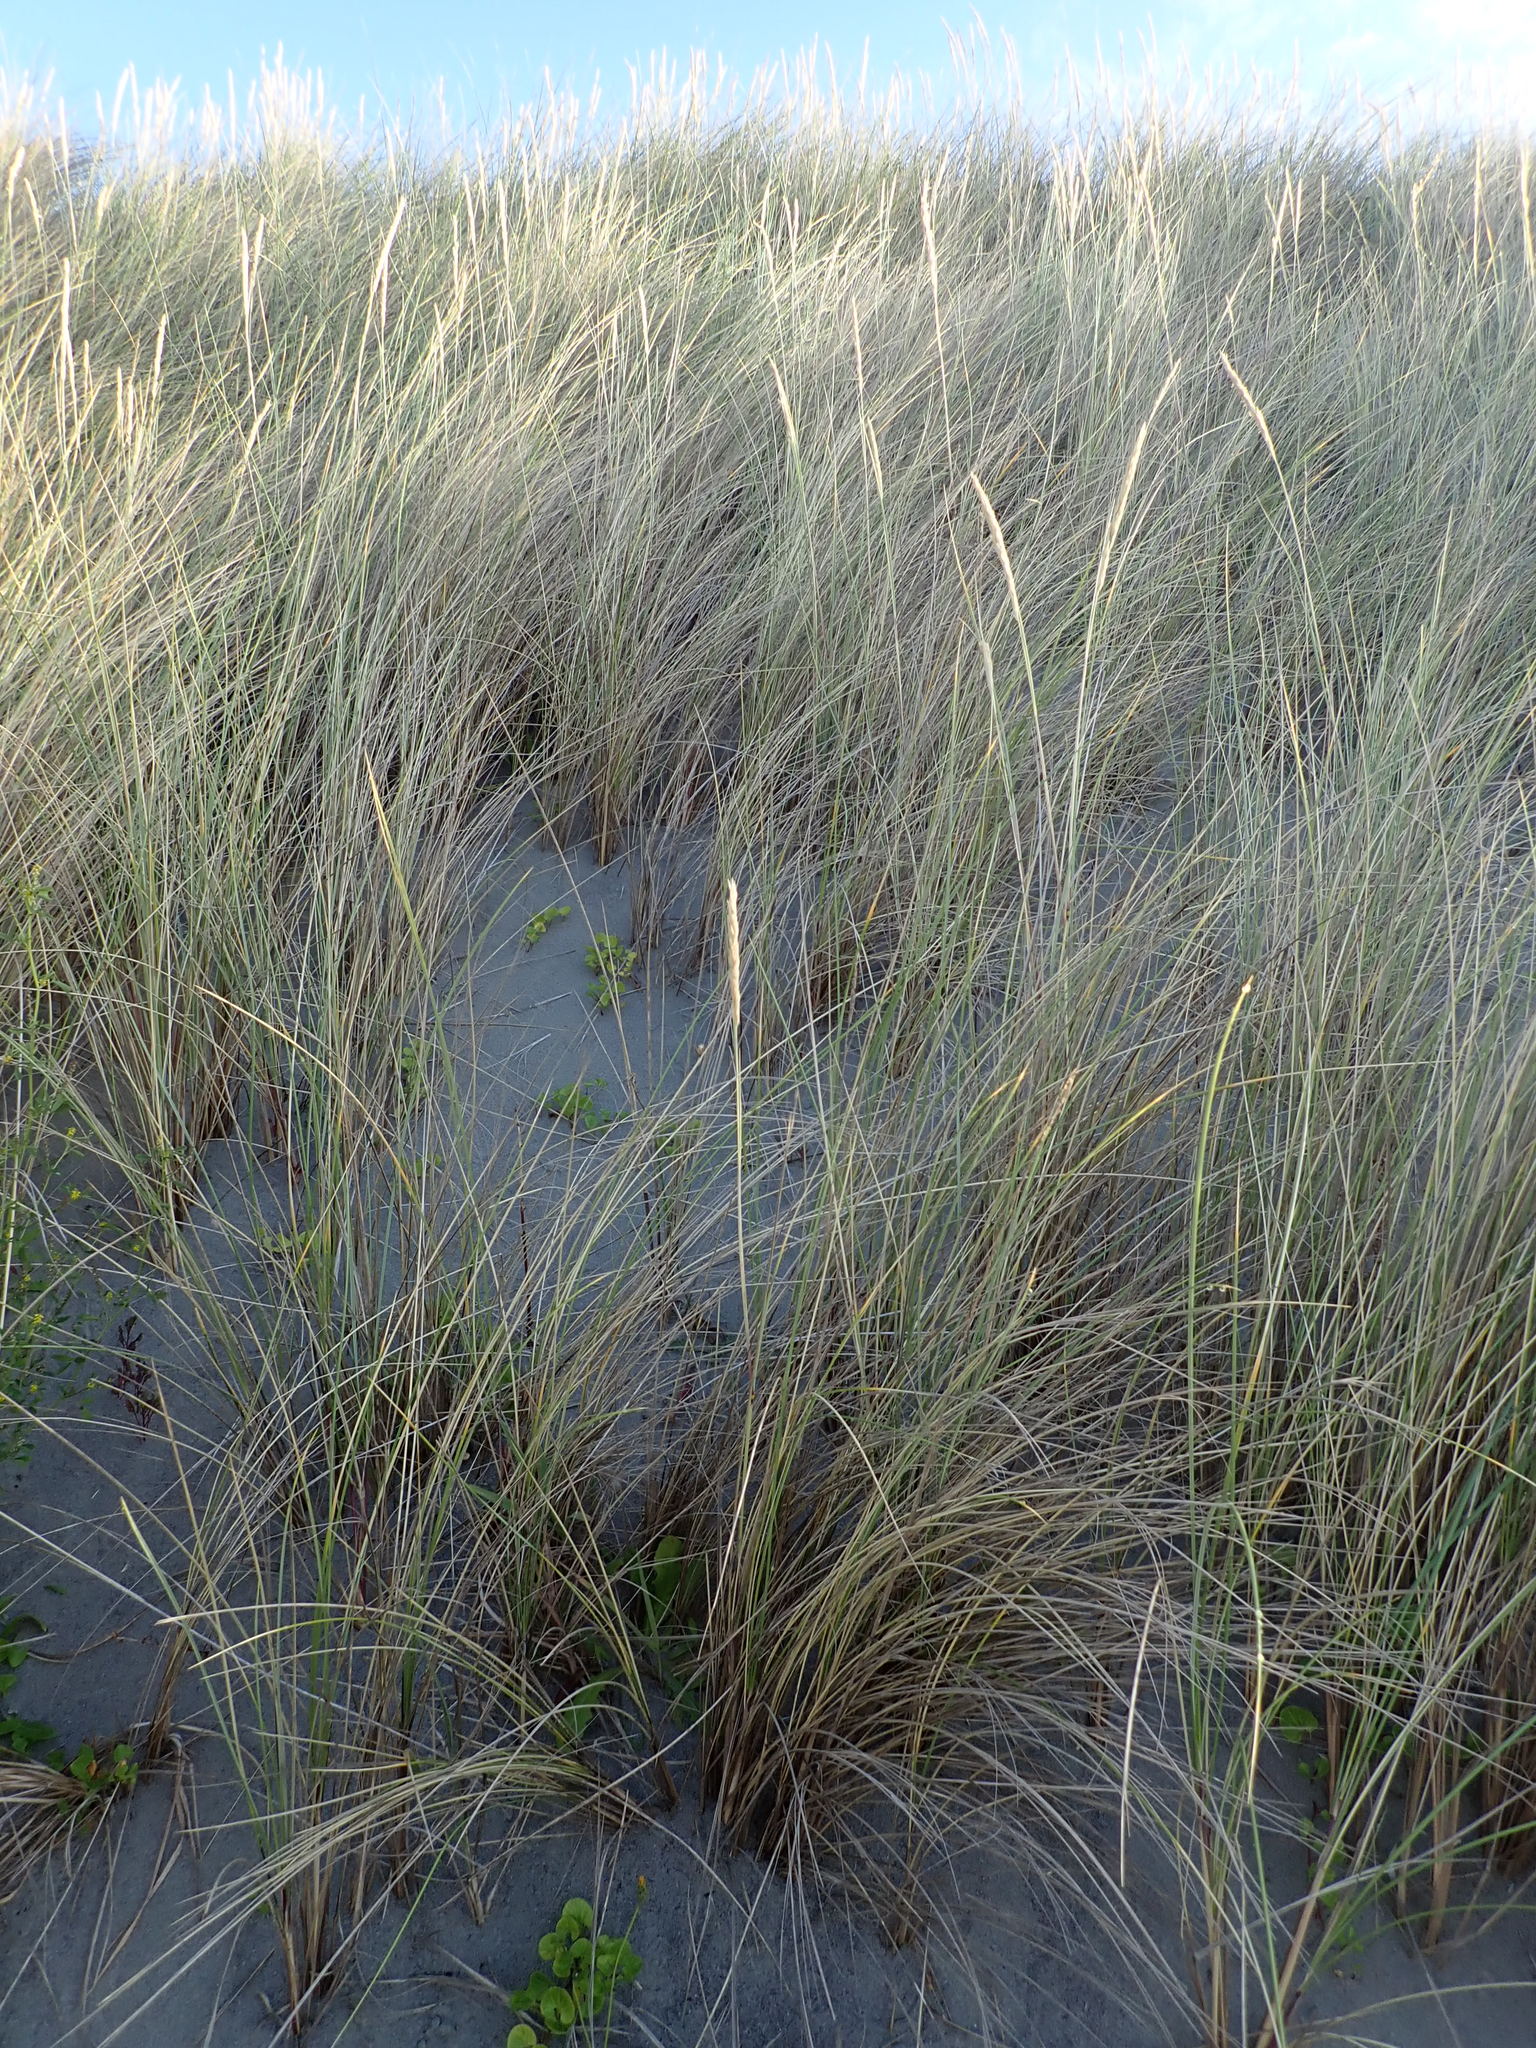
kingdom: Plantae
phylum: Tracheophyta
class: Liliopsida
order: Poales
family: Poaceae
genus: Calamagrostis
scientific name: Calamagrostis arenaria
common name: European beachgrass
